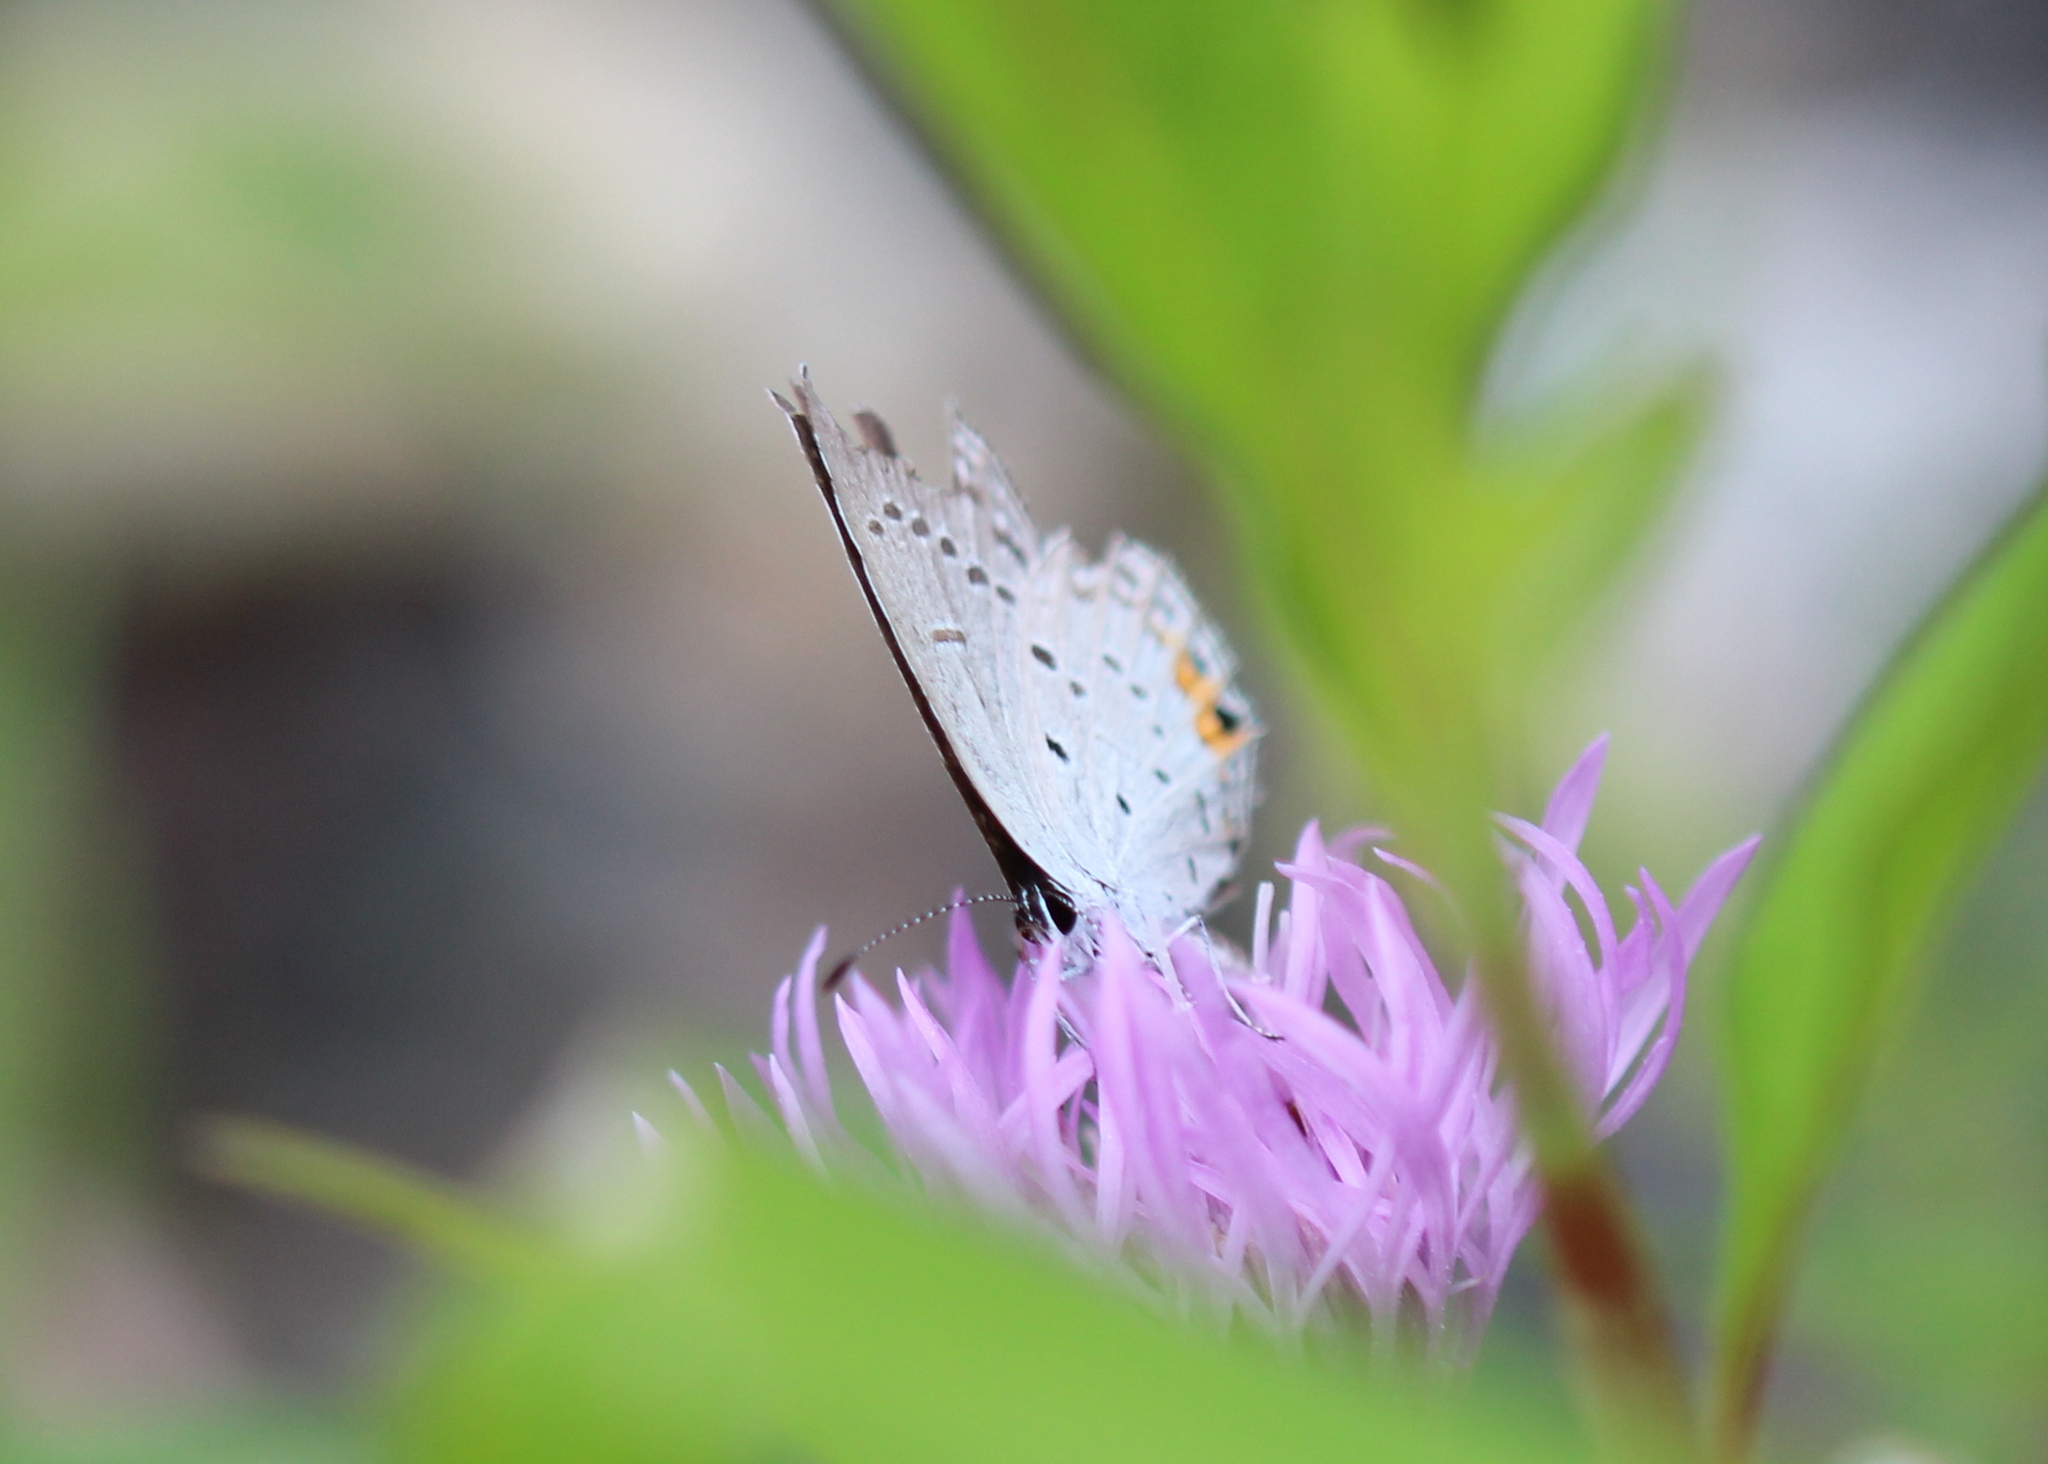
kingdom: Animalia
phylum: Arthropoda
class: Insecta
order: Lepidoptera
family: Lycaenidae
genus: Elkalyce
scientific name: Elkalyce comyntas
